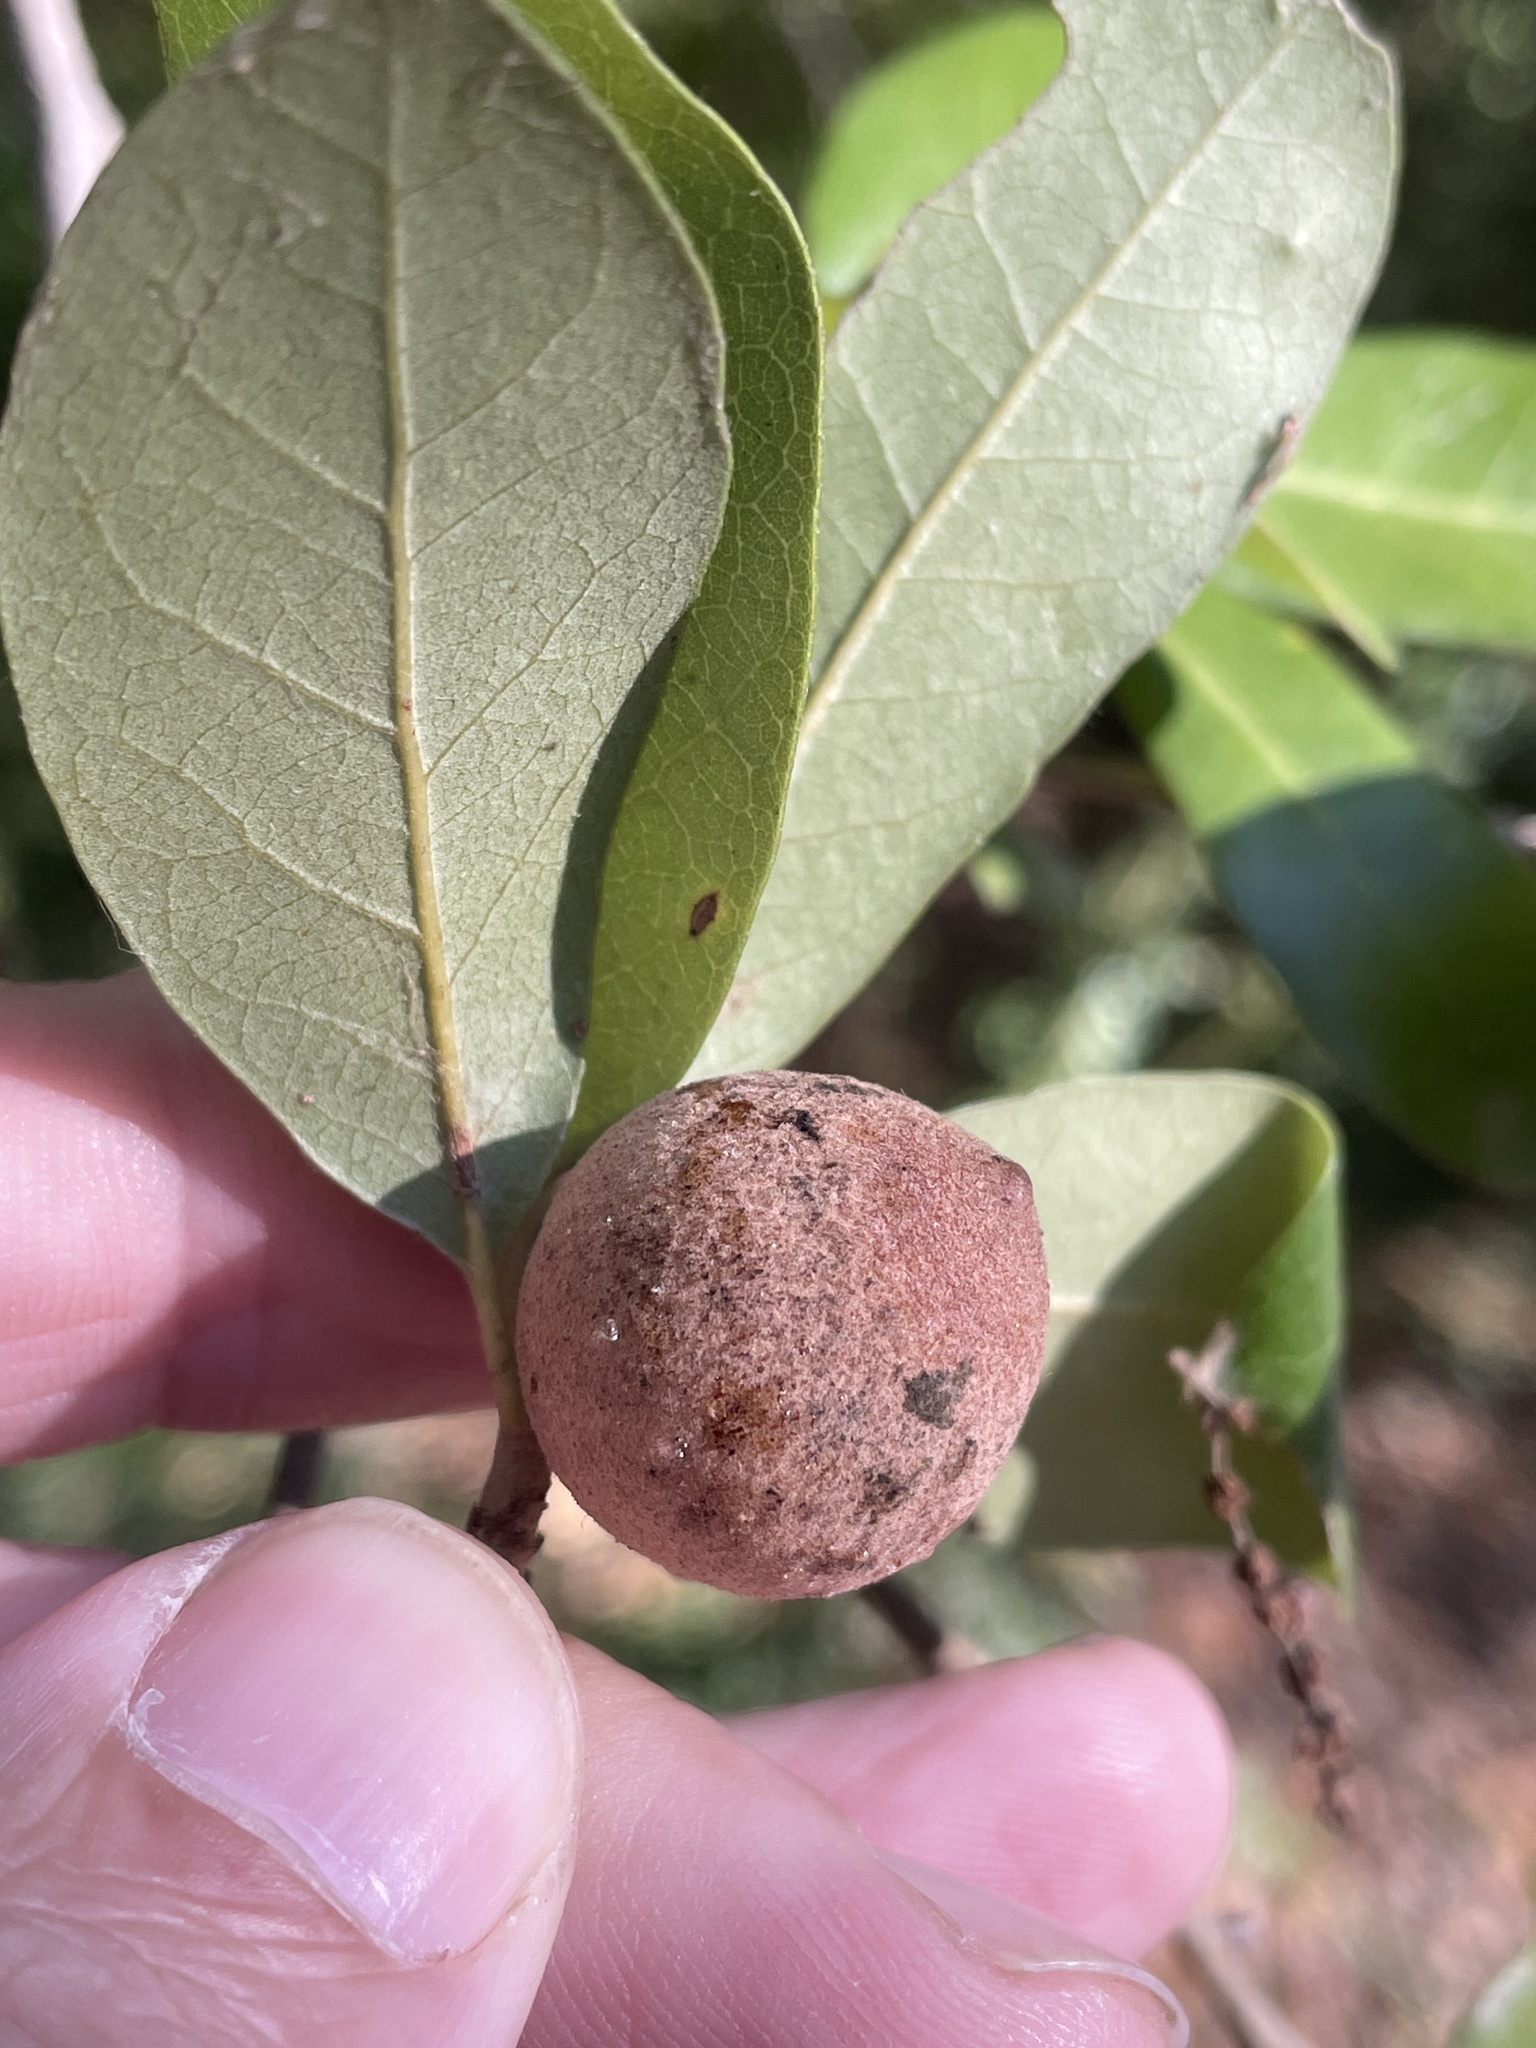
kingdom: Animalia
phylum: Arthropoda
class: Insecta
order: Hymenoptera
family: Cynipidae
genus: Disholcaspis
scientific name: Disholcaspis
